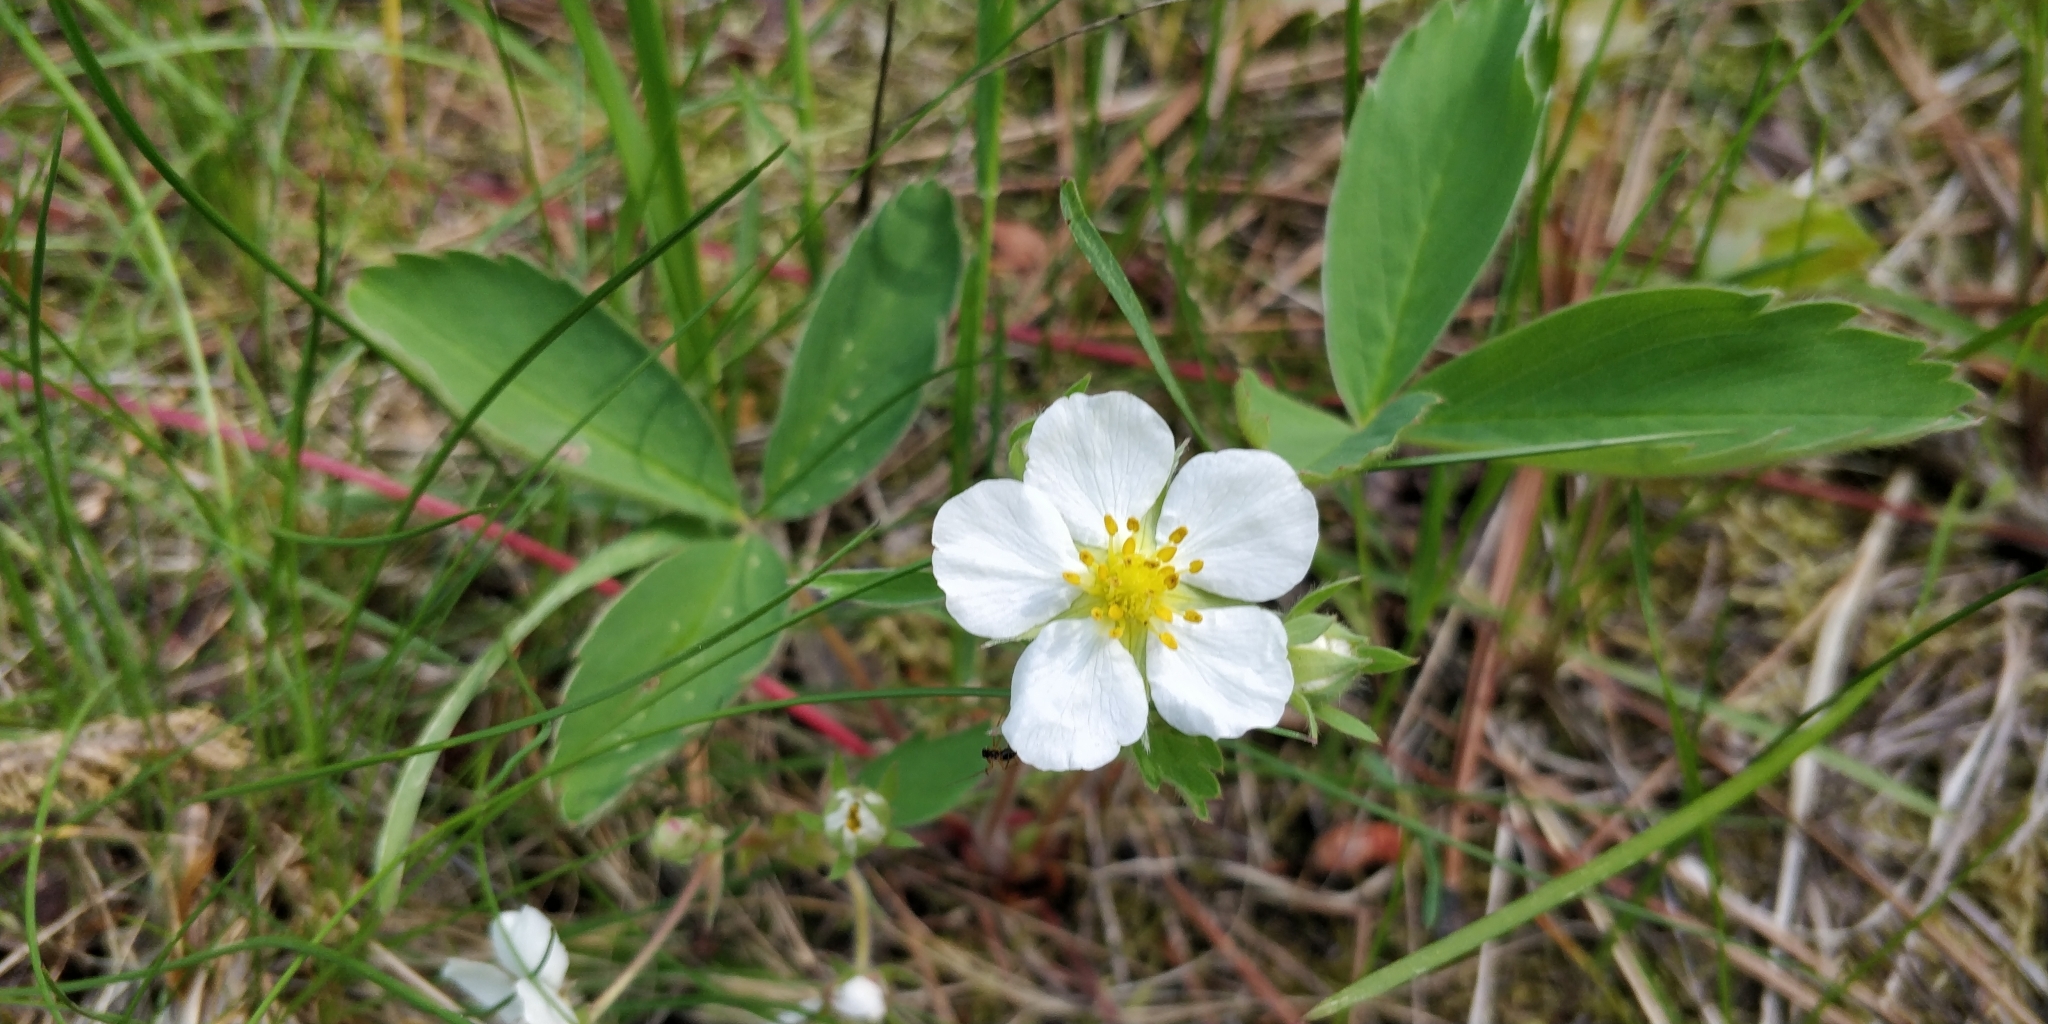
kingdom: Plantae
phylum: Tracheophyta
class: Magnoliopsida
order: Rosales
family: Rosaceae
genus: Fragaria
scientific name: Fragaria virginiana
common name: Thickleaved wild strawberry
